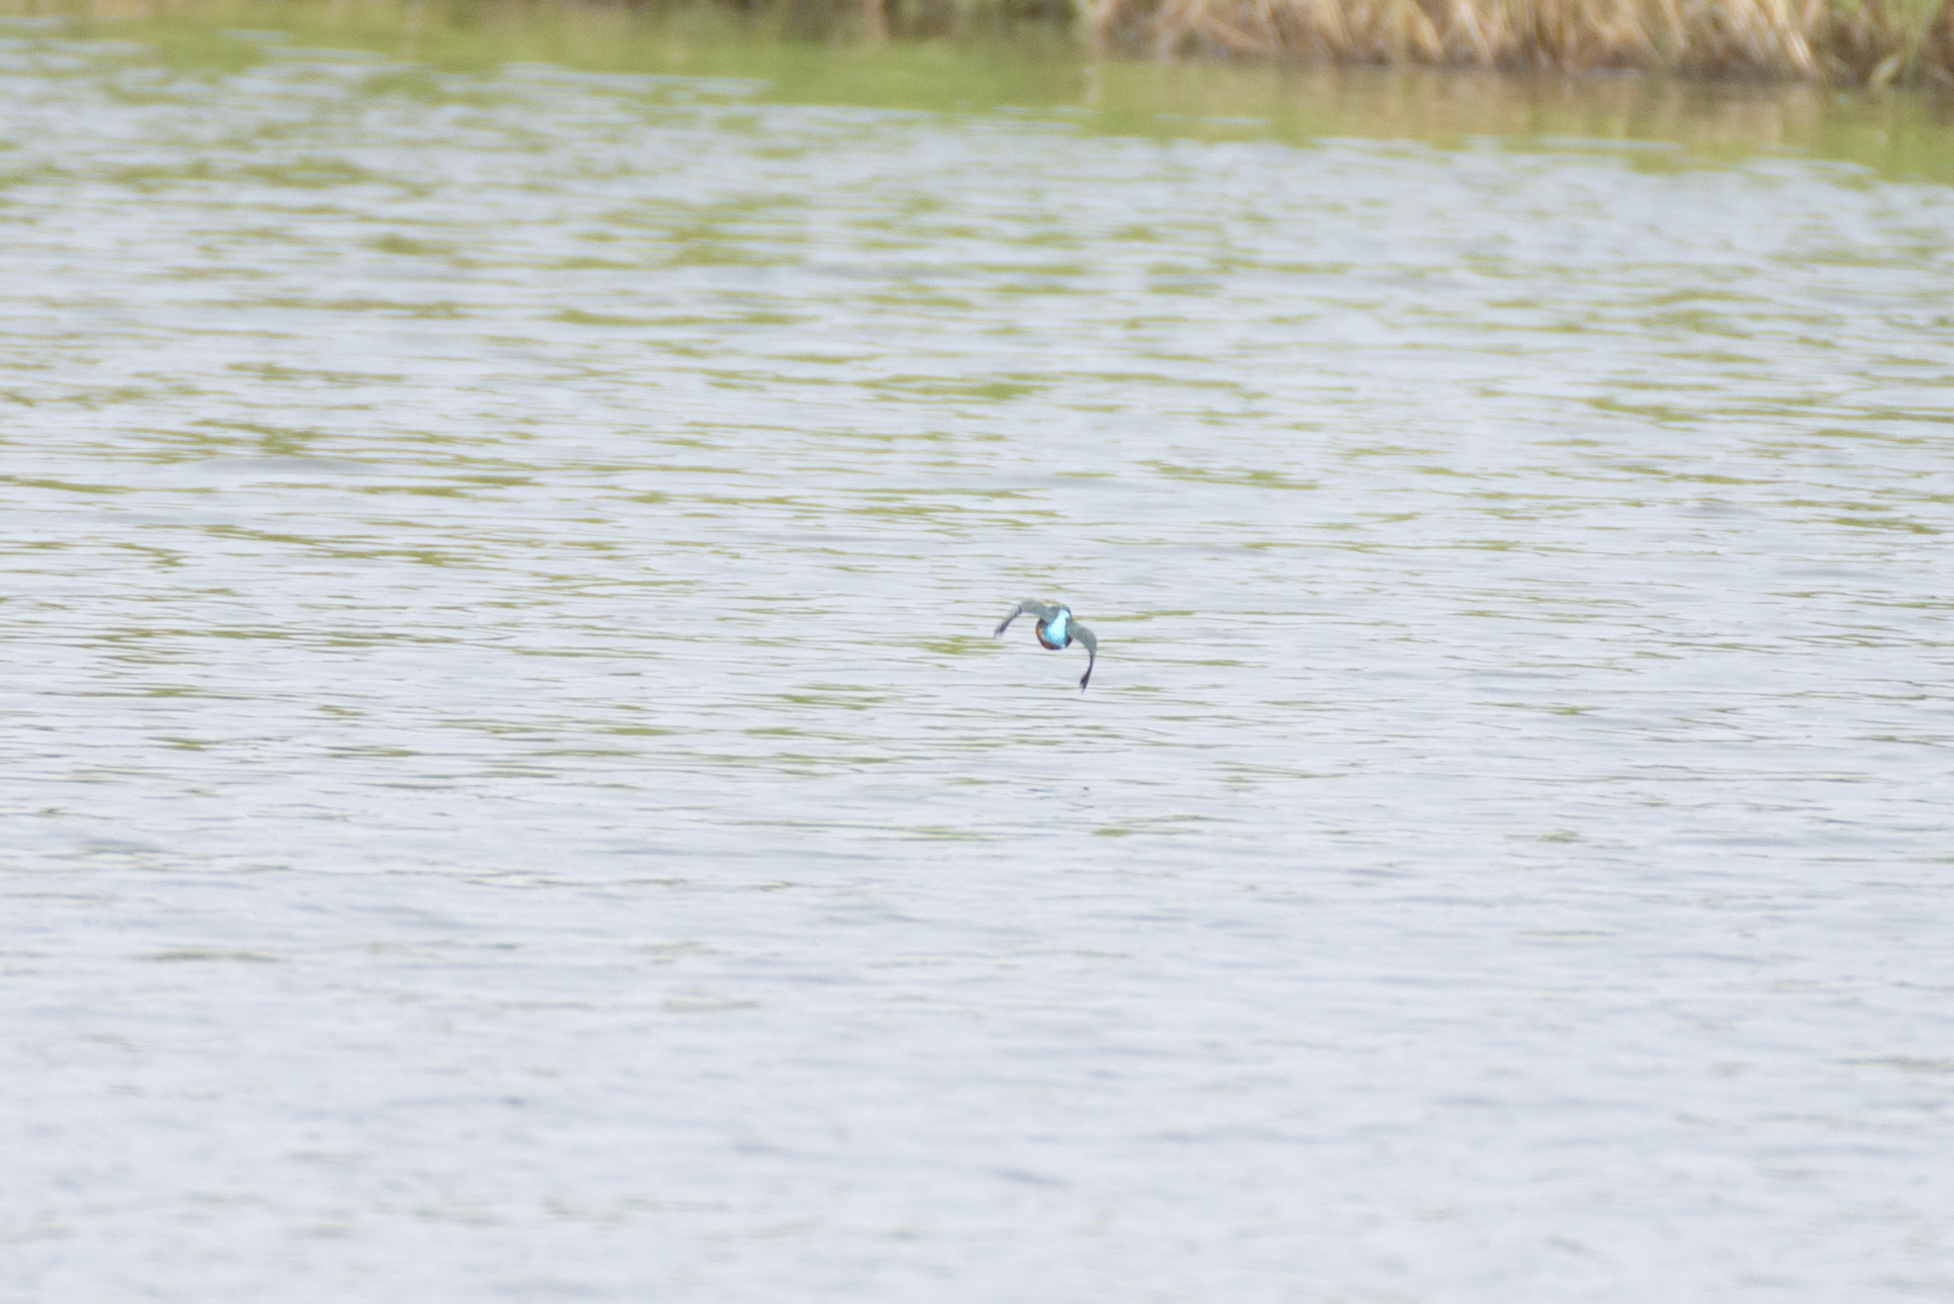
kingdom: Animalia
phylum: Chordata
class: Aves
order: Coraciiformes
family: Alcedinidae
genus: Alcedo
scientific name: Alcedo atthis
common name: Common kingfisher
